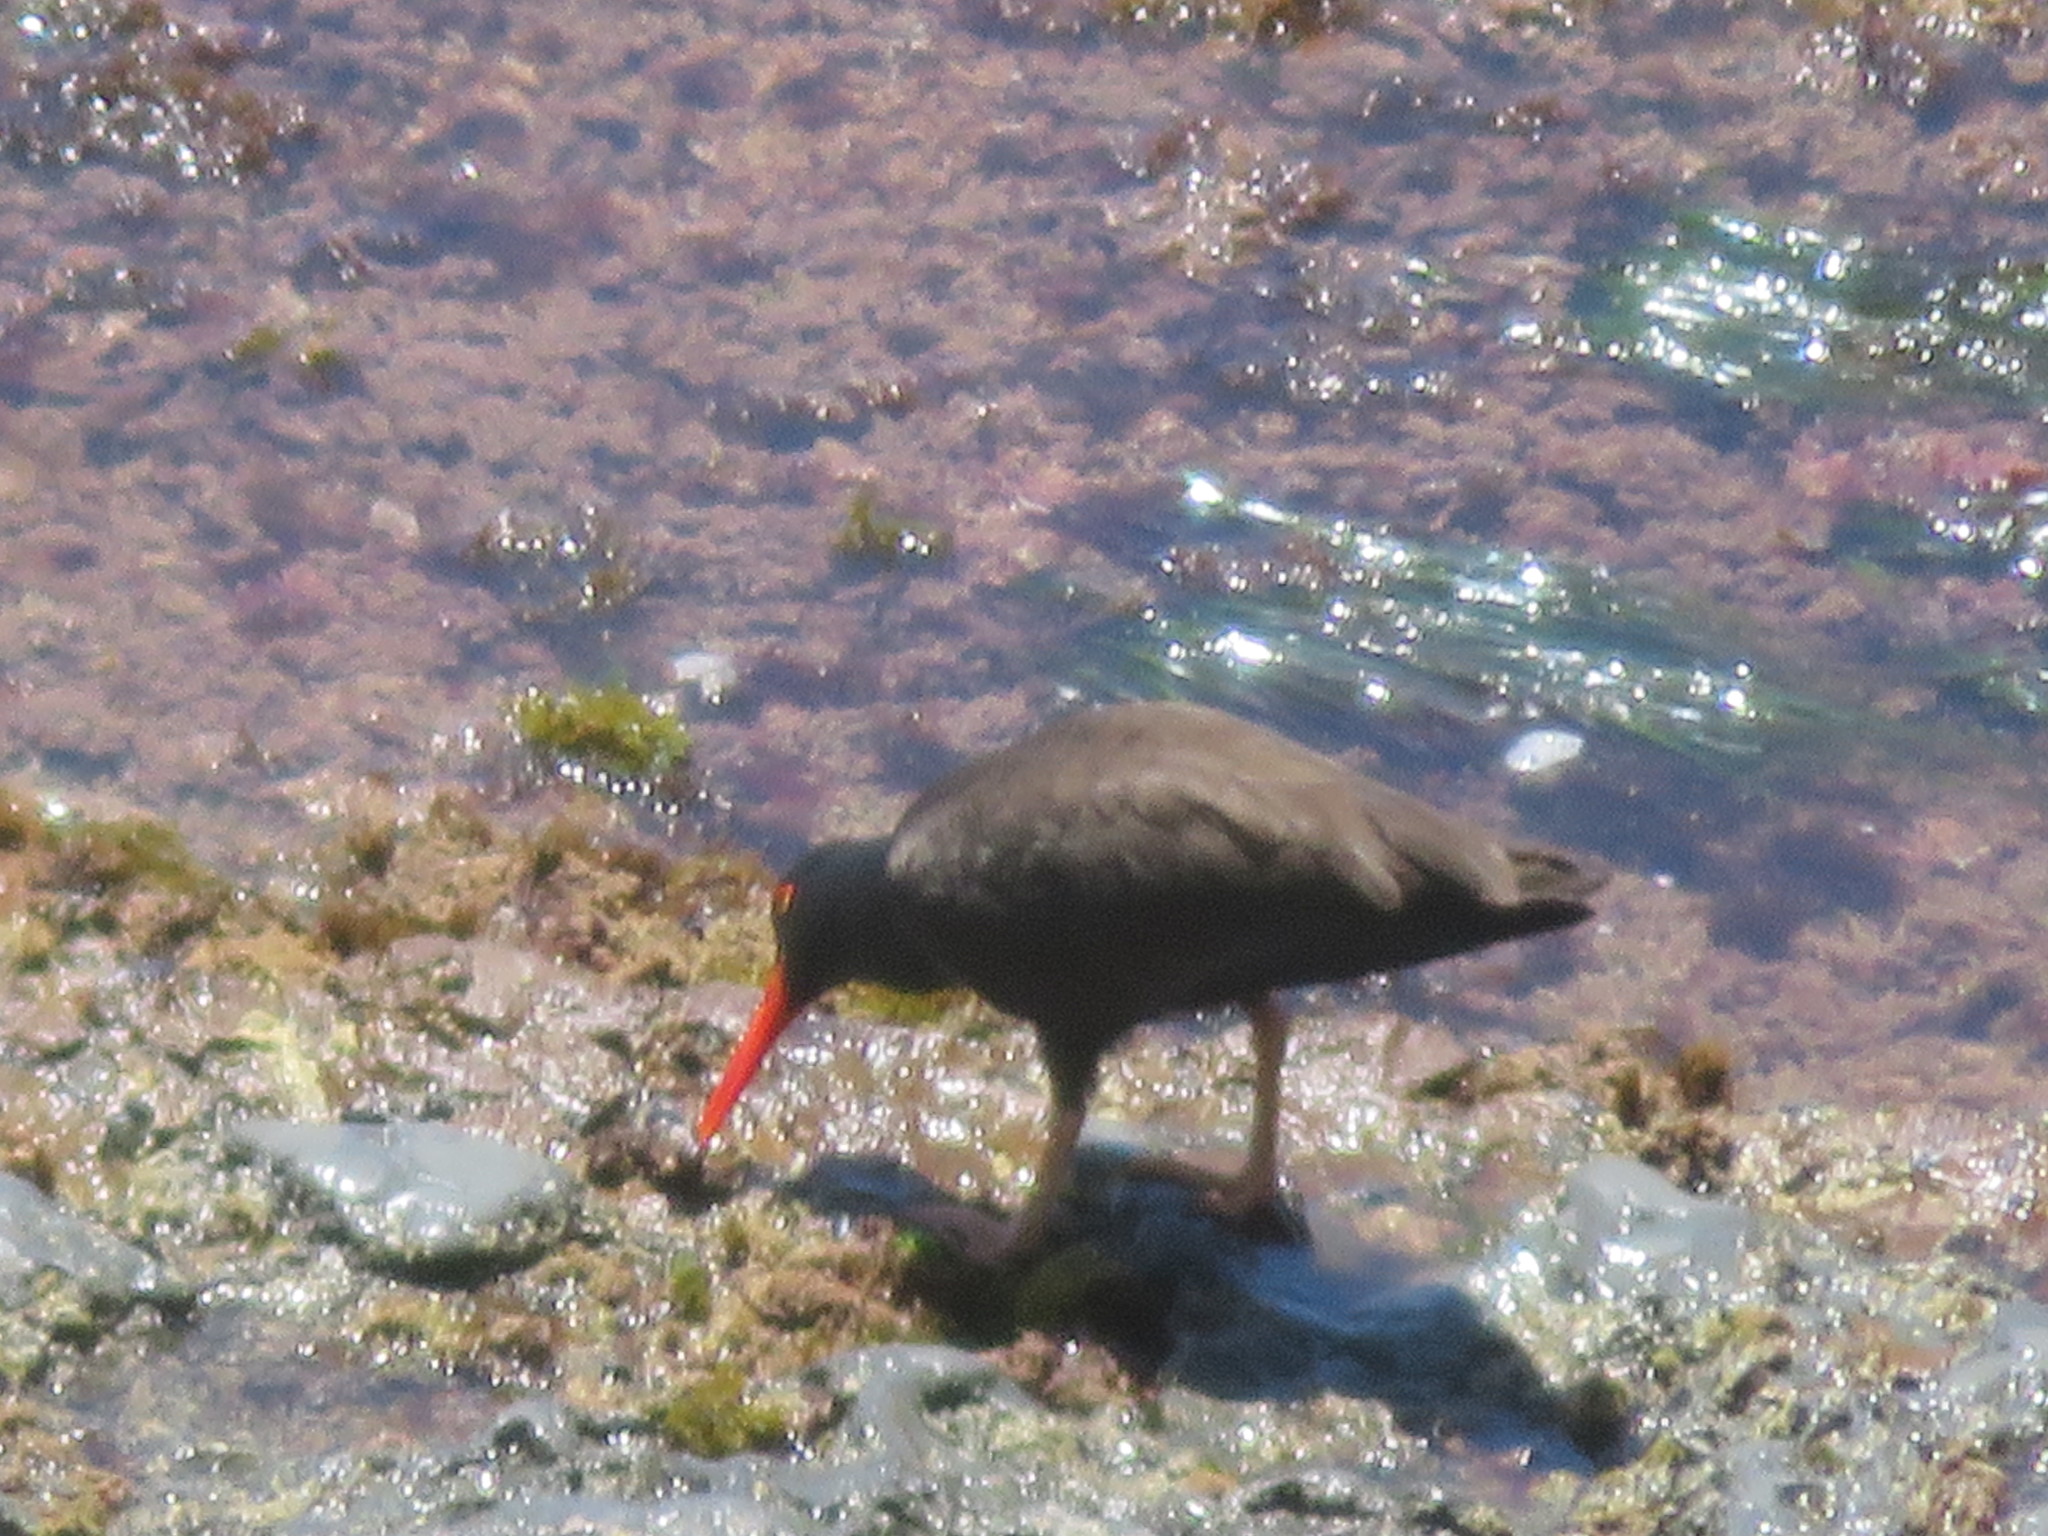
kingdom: Animalia
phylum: Chordata
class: Aves
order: Charadriiformes
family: Haematopodidae
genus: Haematopus
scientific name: Haematopus bachmani
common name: Black oystercatcher
